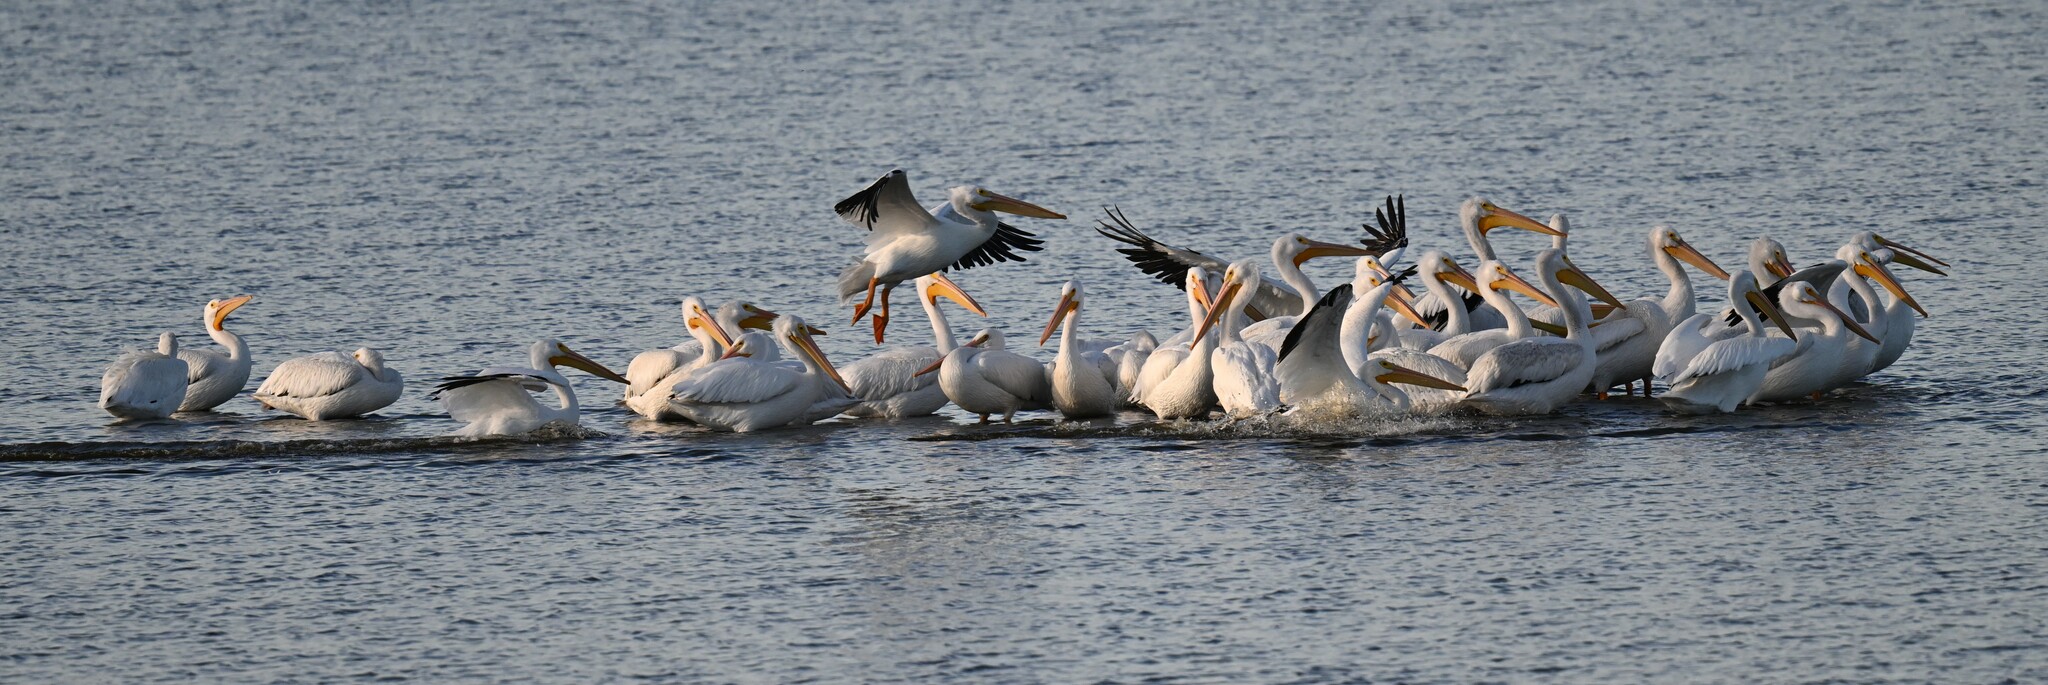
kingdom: Animalia
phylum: Chordata
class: Aves
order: Pelecaniformes
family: Pelecanidae
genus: Pelecanus
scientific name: Pelecanus erythrorhynchos
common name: American white pelican
